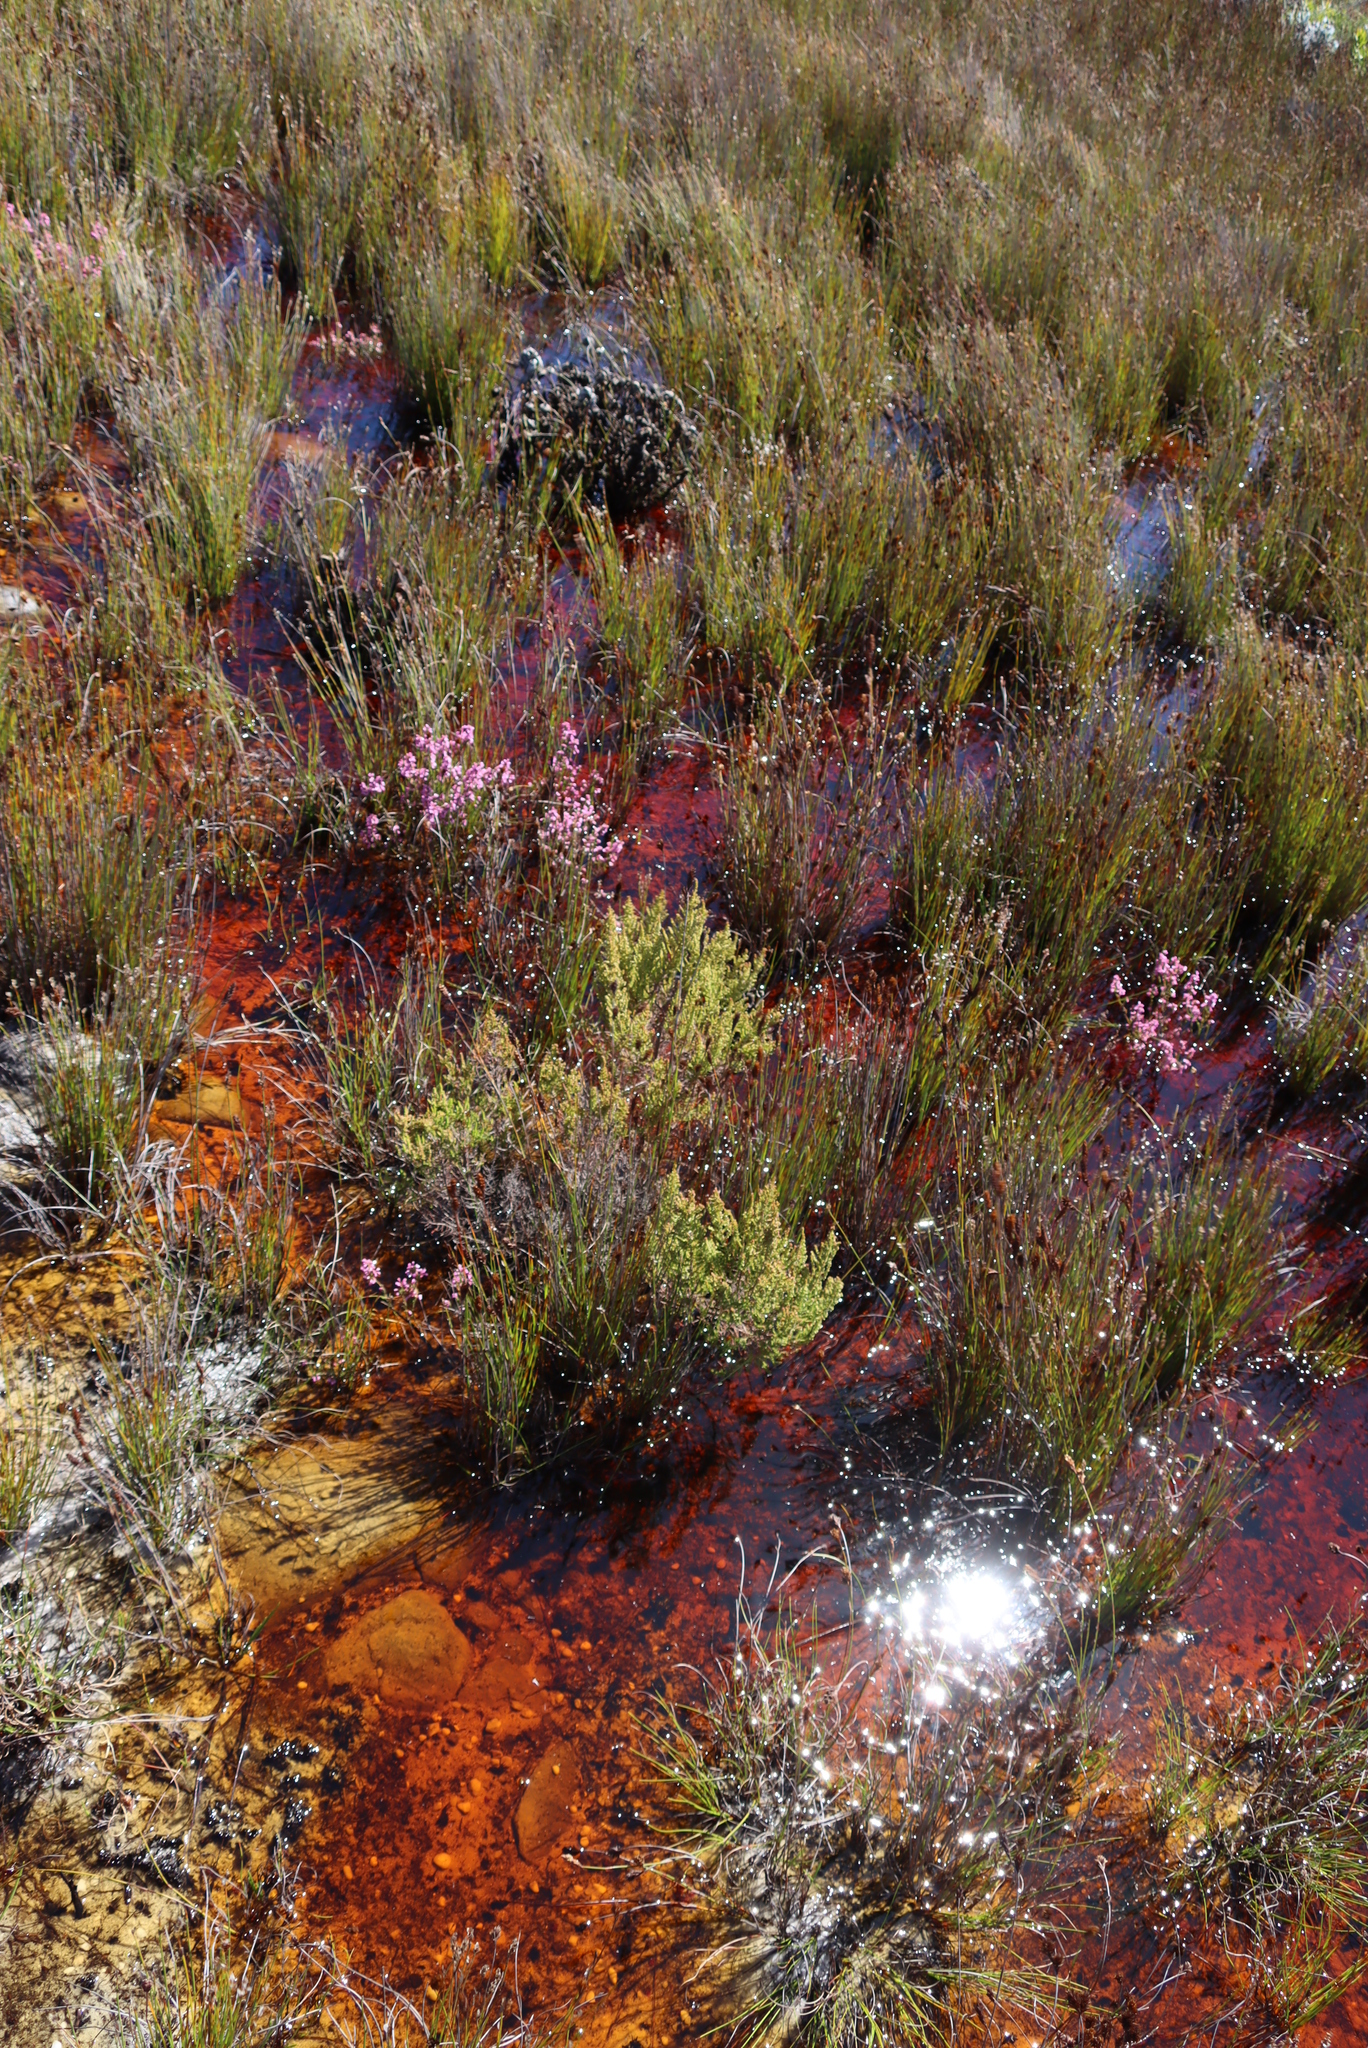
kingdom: Plantae
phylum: Tracheophyta
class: Magnoliopsida
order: Ericales
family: Ericaceae
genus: Erica
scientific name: Erica muscosa
